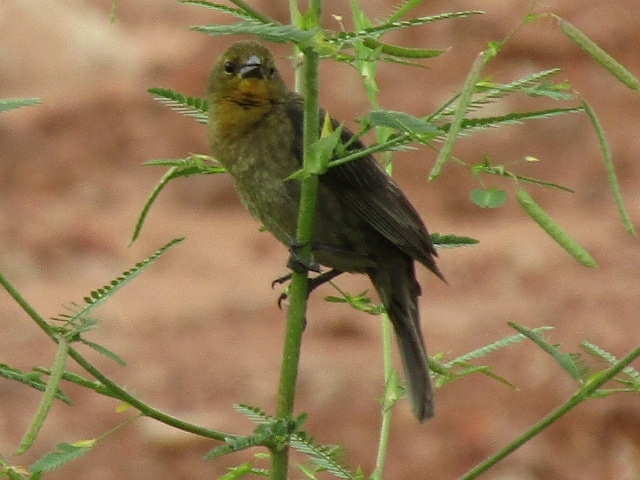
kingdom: Animalia
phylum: Chordata
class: Aves
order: Passeriformes
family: Icteridae
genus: Chrysomus
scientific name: Chrysomus ruficapillus
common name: Chestnut-capped blackbird
